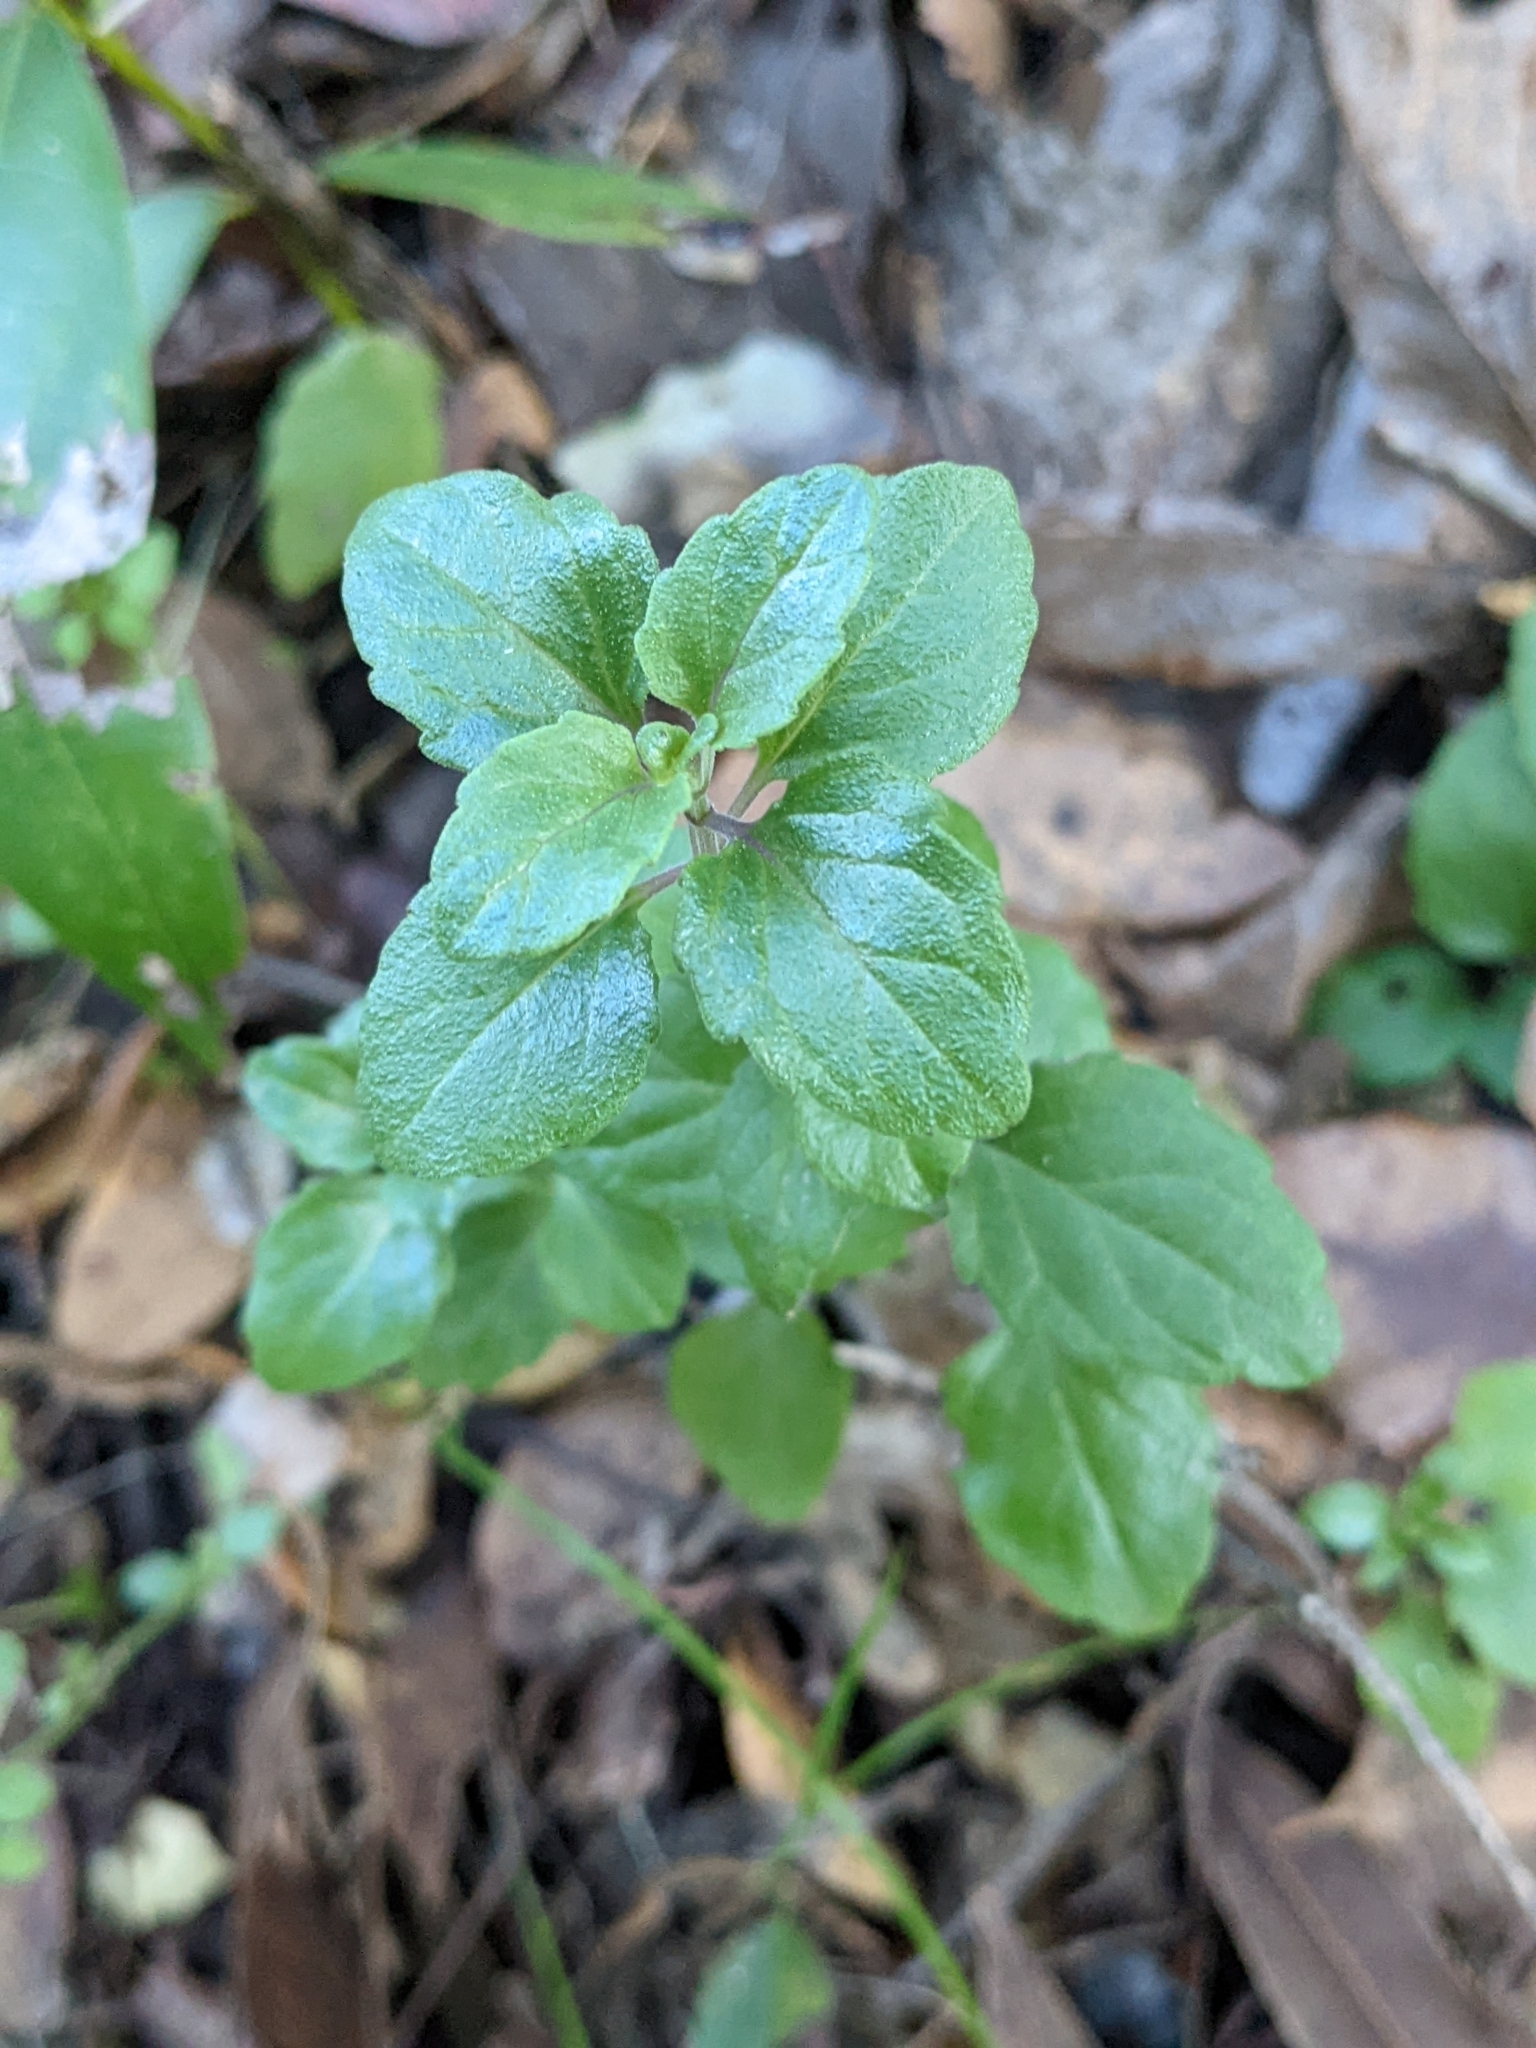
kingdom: Plantae
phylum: Tracheophyta
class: Magnoliopsida
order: Lamiales
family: Lamiaceae
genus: Micromeria
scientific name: Micromeria douglasii
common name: Yerba buena
